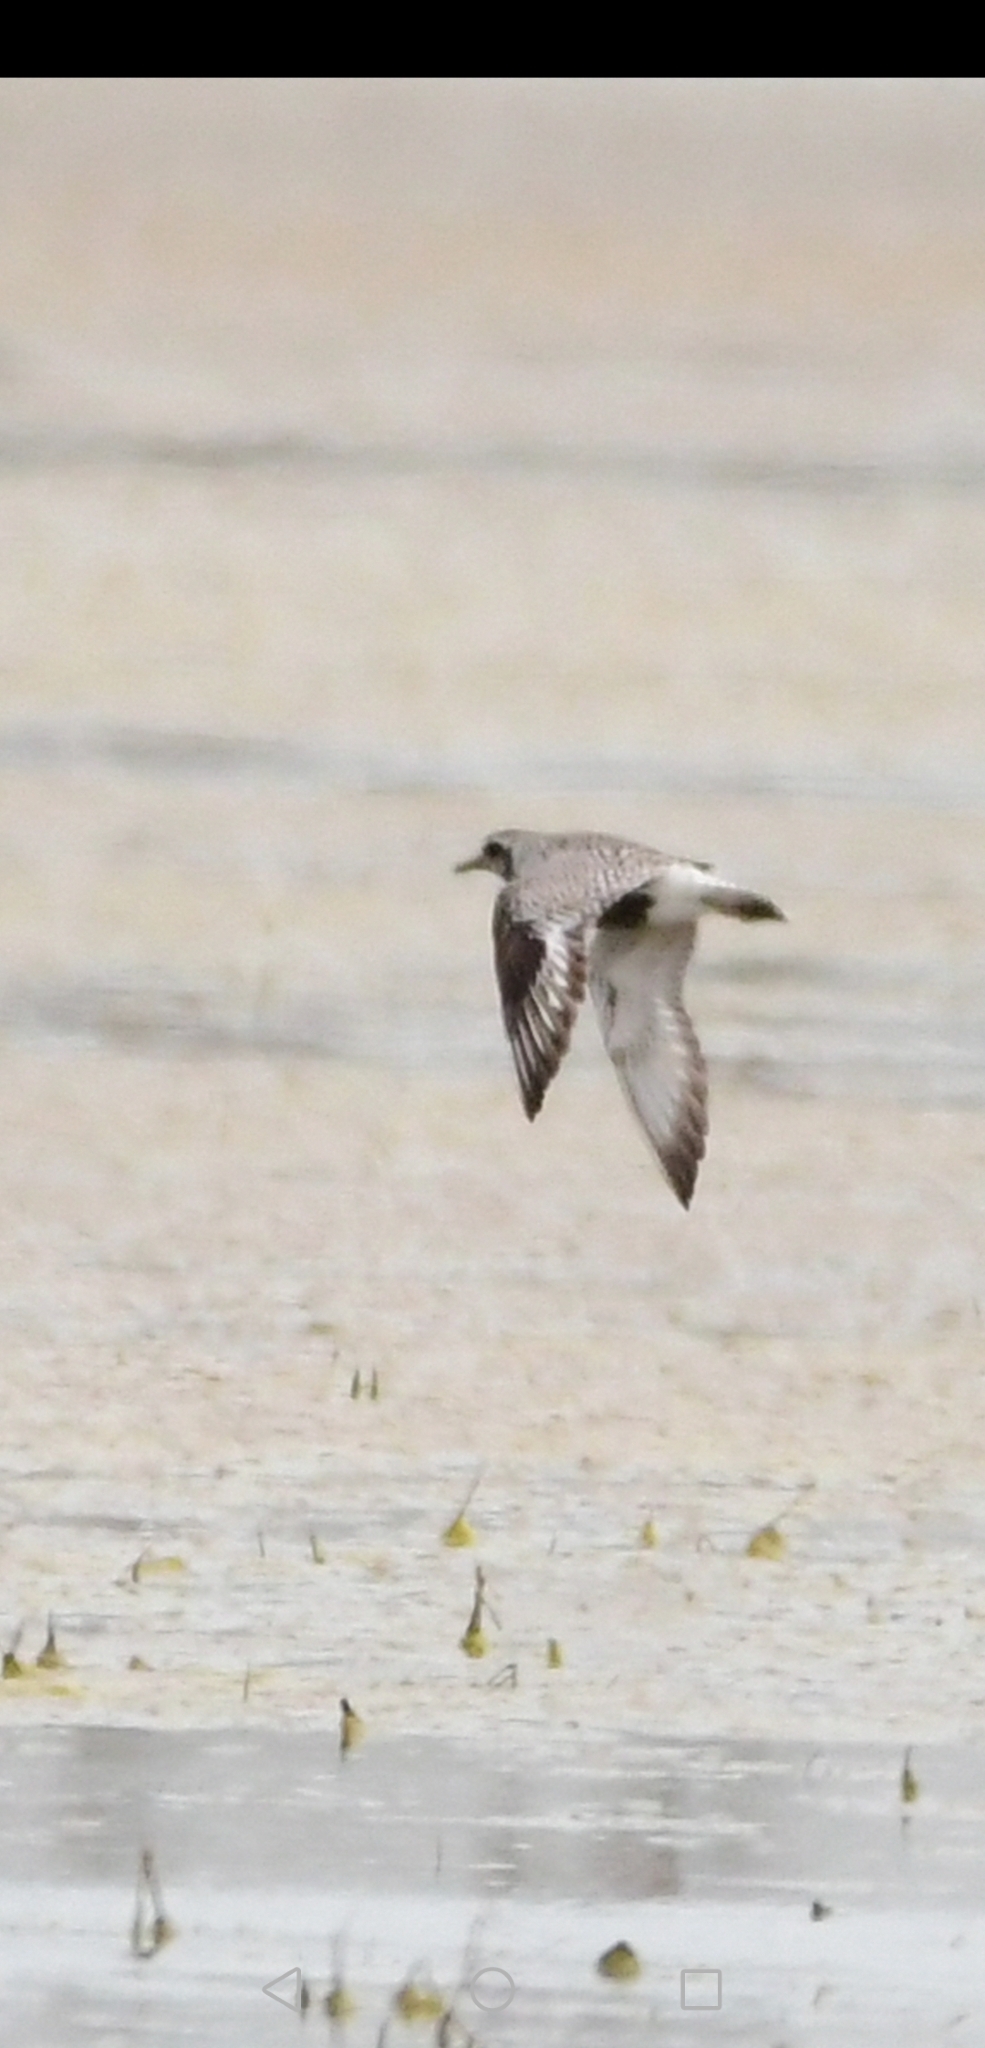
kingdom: Animalia
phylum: Chordata
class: Aves
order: Charadriiformes
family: Charadriidae
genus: Pluvialis
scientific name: Pluvialis squatarola
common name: Grey plover
